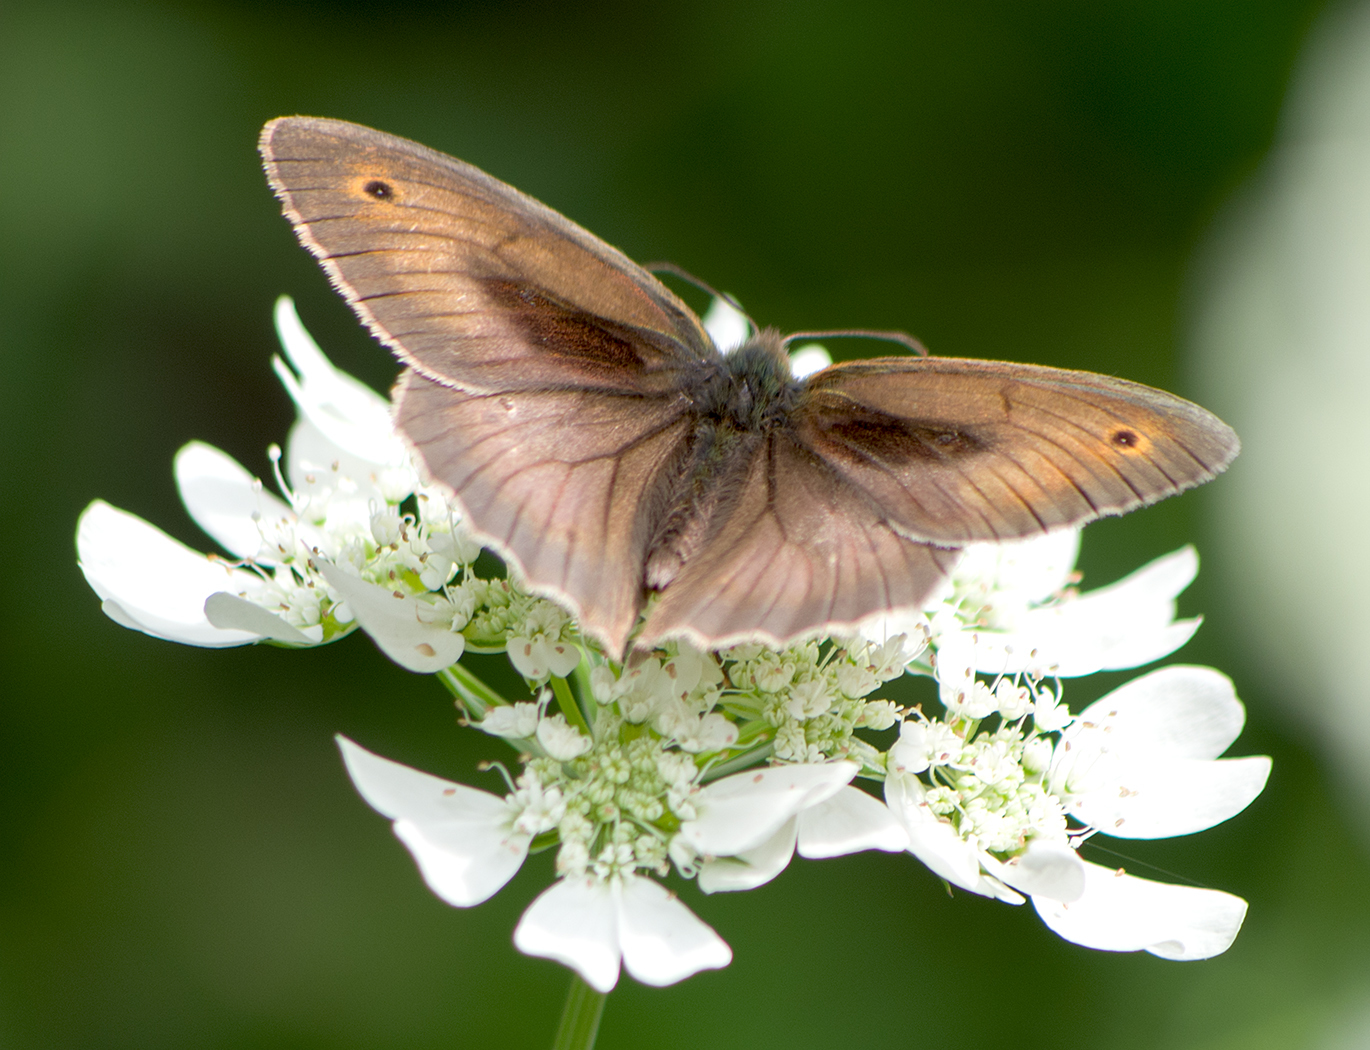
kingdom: Animalia
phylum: Arthropoda
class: Insecta
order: Lepidoptera
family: Nymphalidae
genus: Maniola
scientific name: Maniola jurtina
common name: Meadow brown
